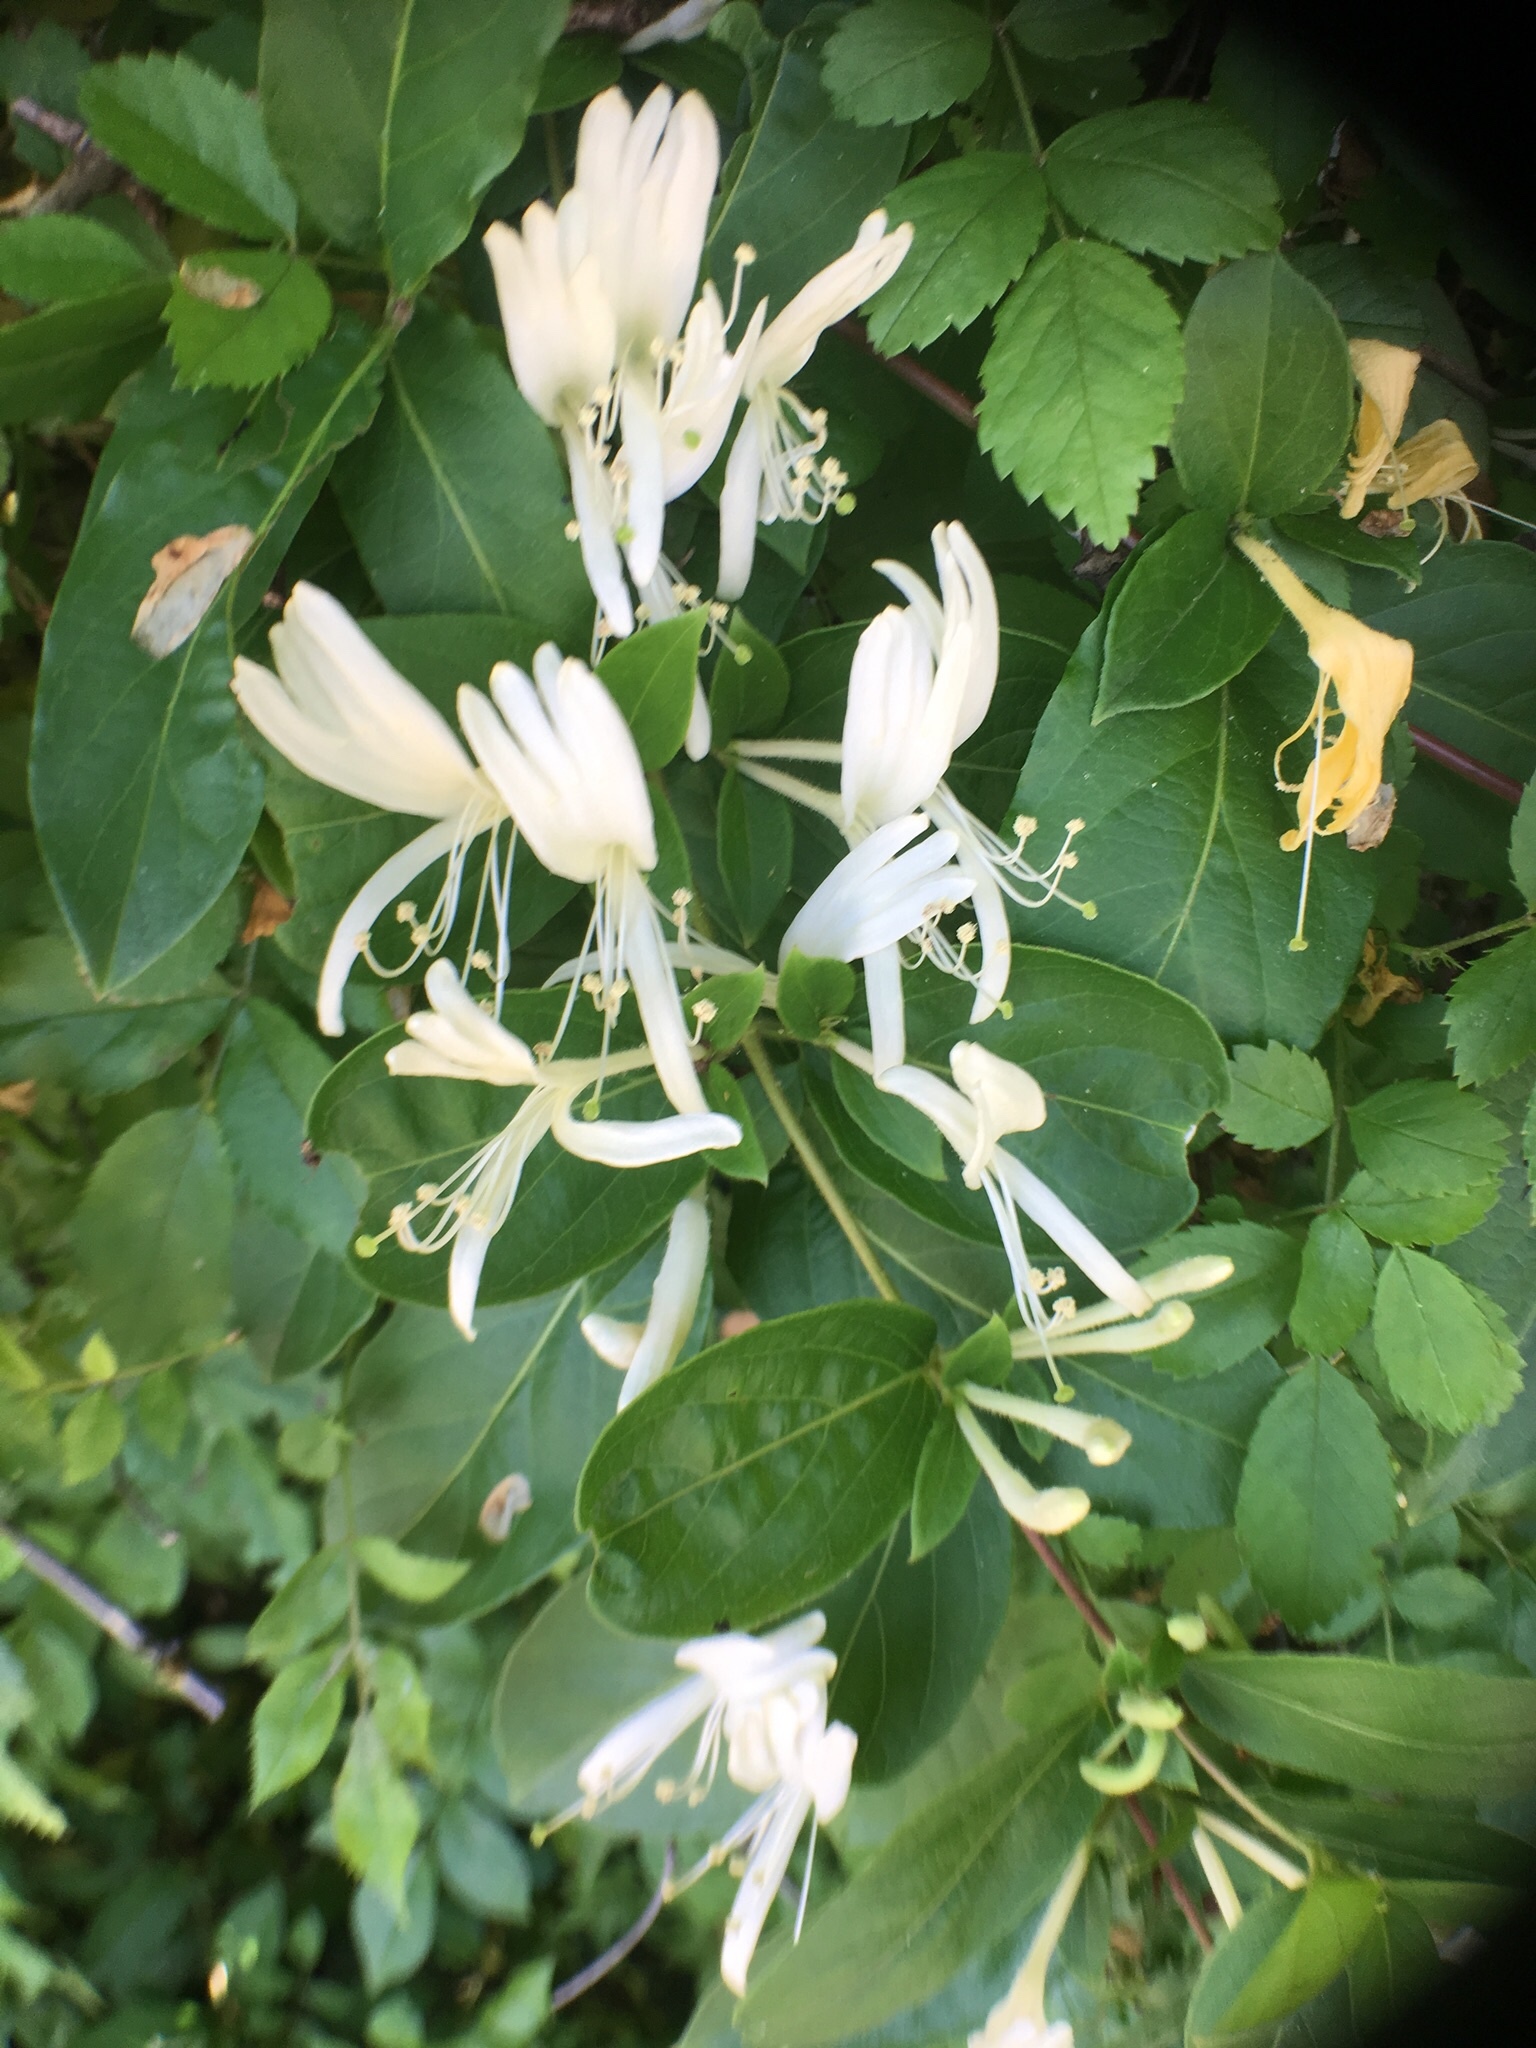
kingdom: Plantae
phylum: Tracheophyta
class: Magnoliopsida
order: Dipsacales
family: Caprifoliaceae
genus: Lonicera
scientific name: Lonicera japonica
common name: Japanese honeysuckle
